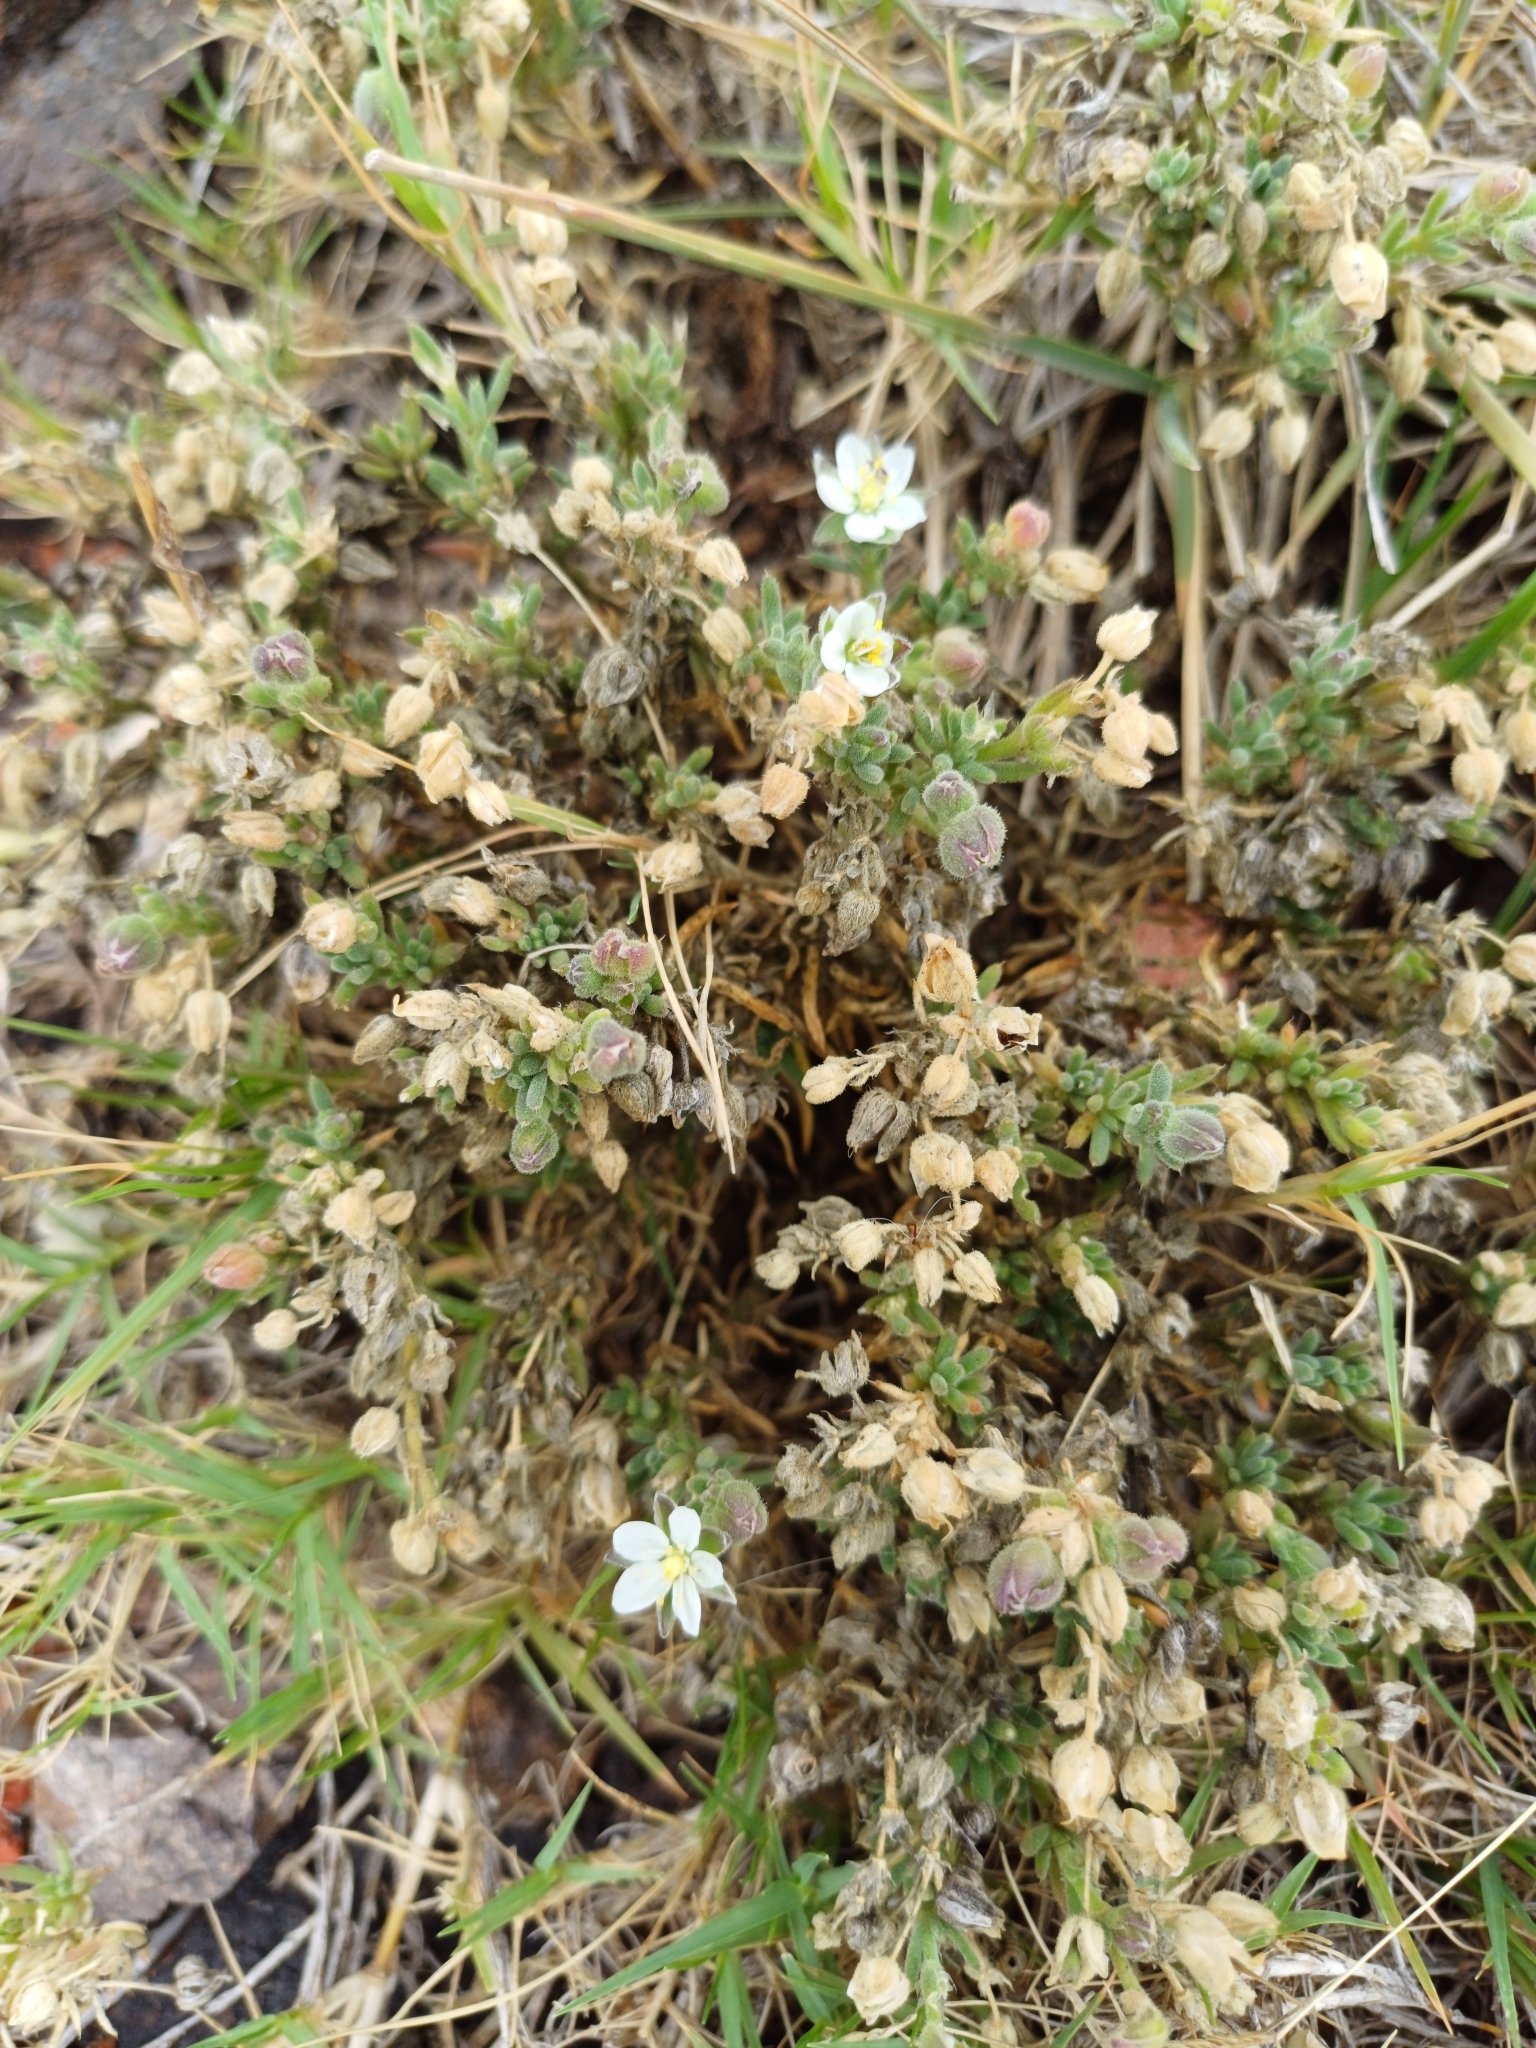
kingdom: Plantae
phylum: Tracheophyta
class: Magnoliopsida
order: Caryophyllales
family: Caryophyllaceae
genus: Spergularia
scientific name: Spergularia
